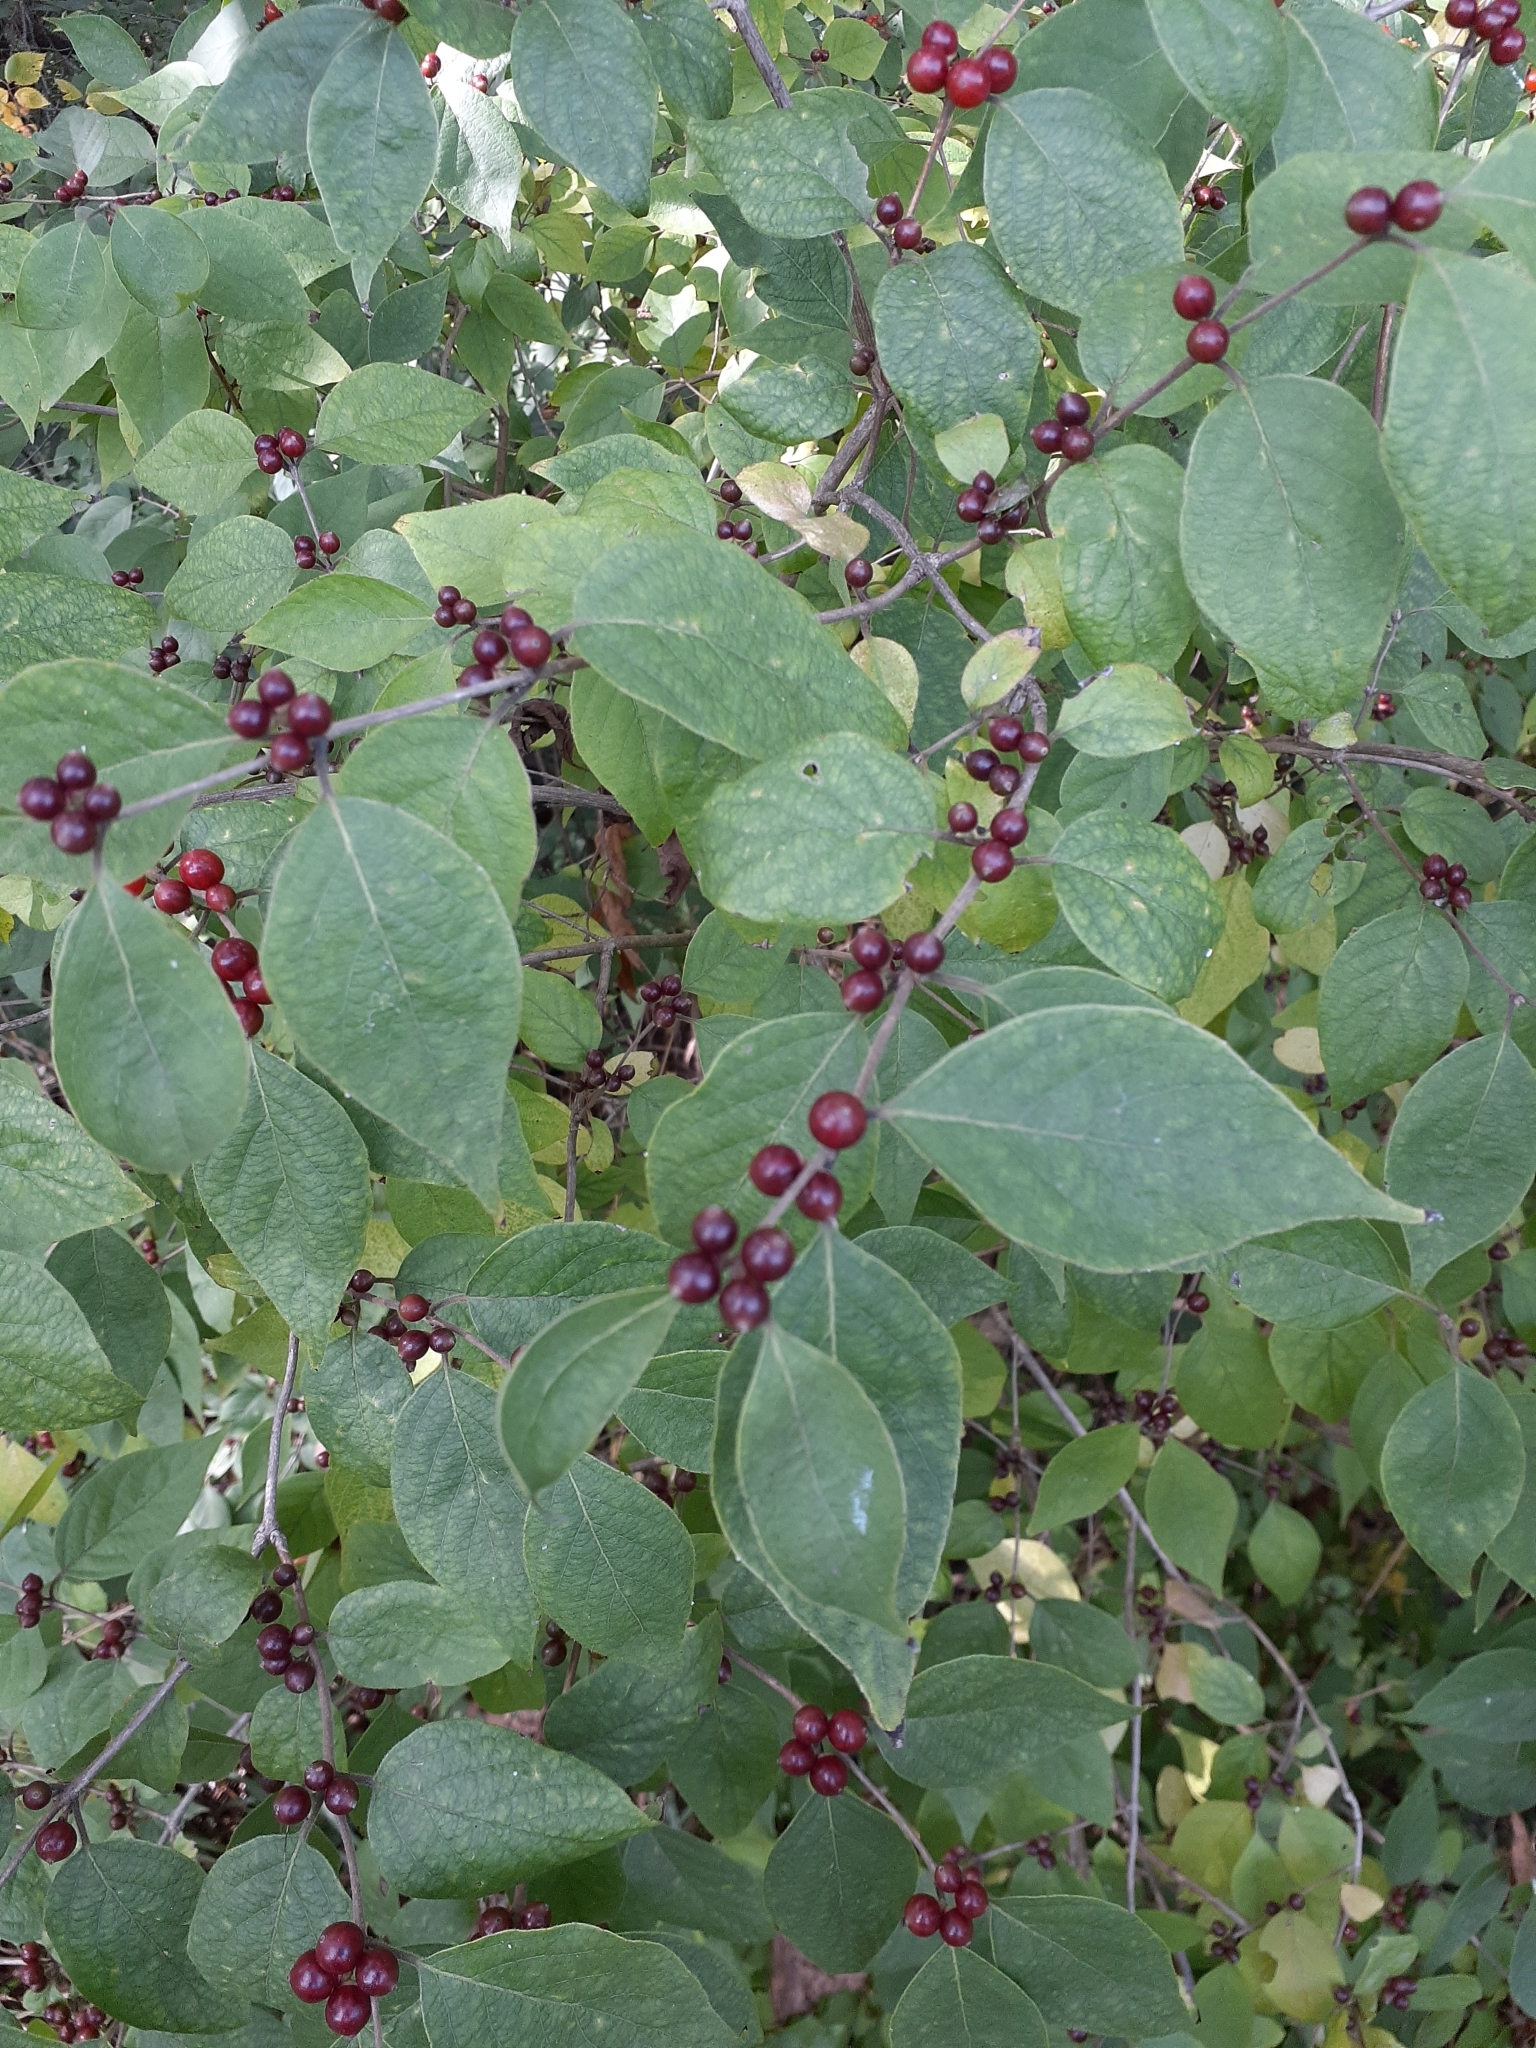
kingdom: Plantae
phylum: Tracheophyta
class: Magnoliopsida
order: Dipsacales
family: Caprifoliaceae
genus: Lonicera
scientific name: Lonicera maackii
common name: Amur honeysuckle
